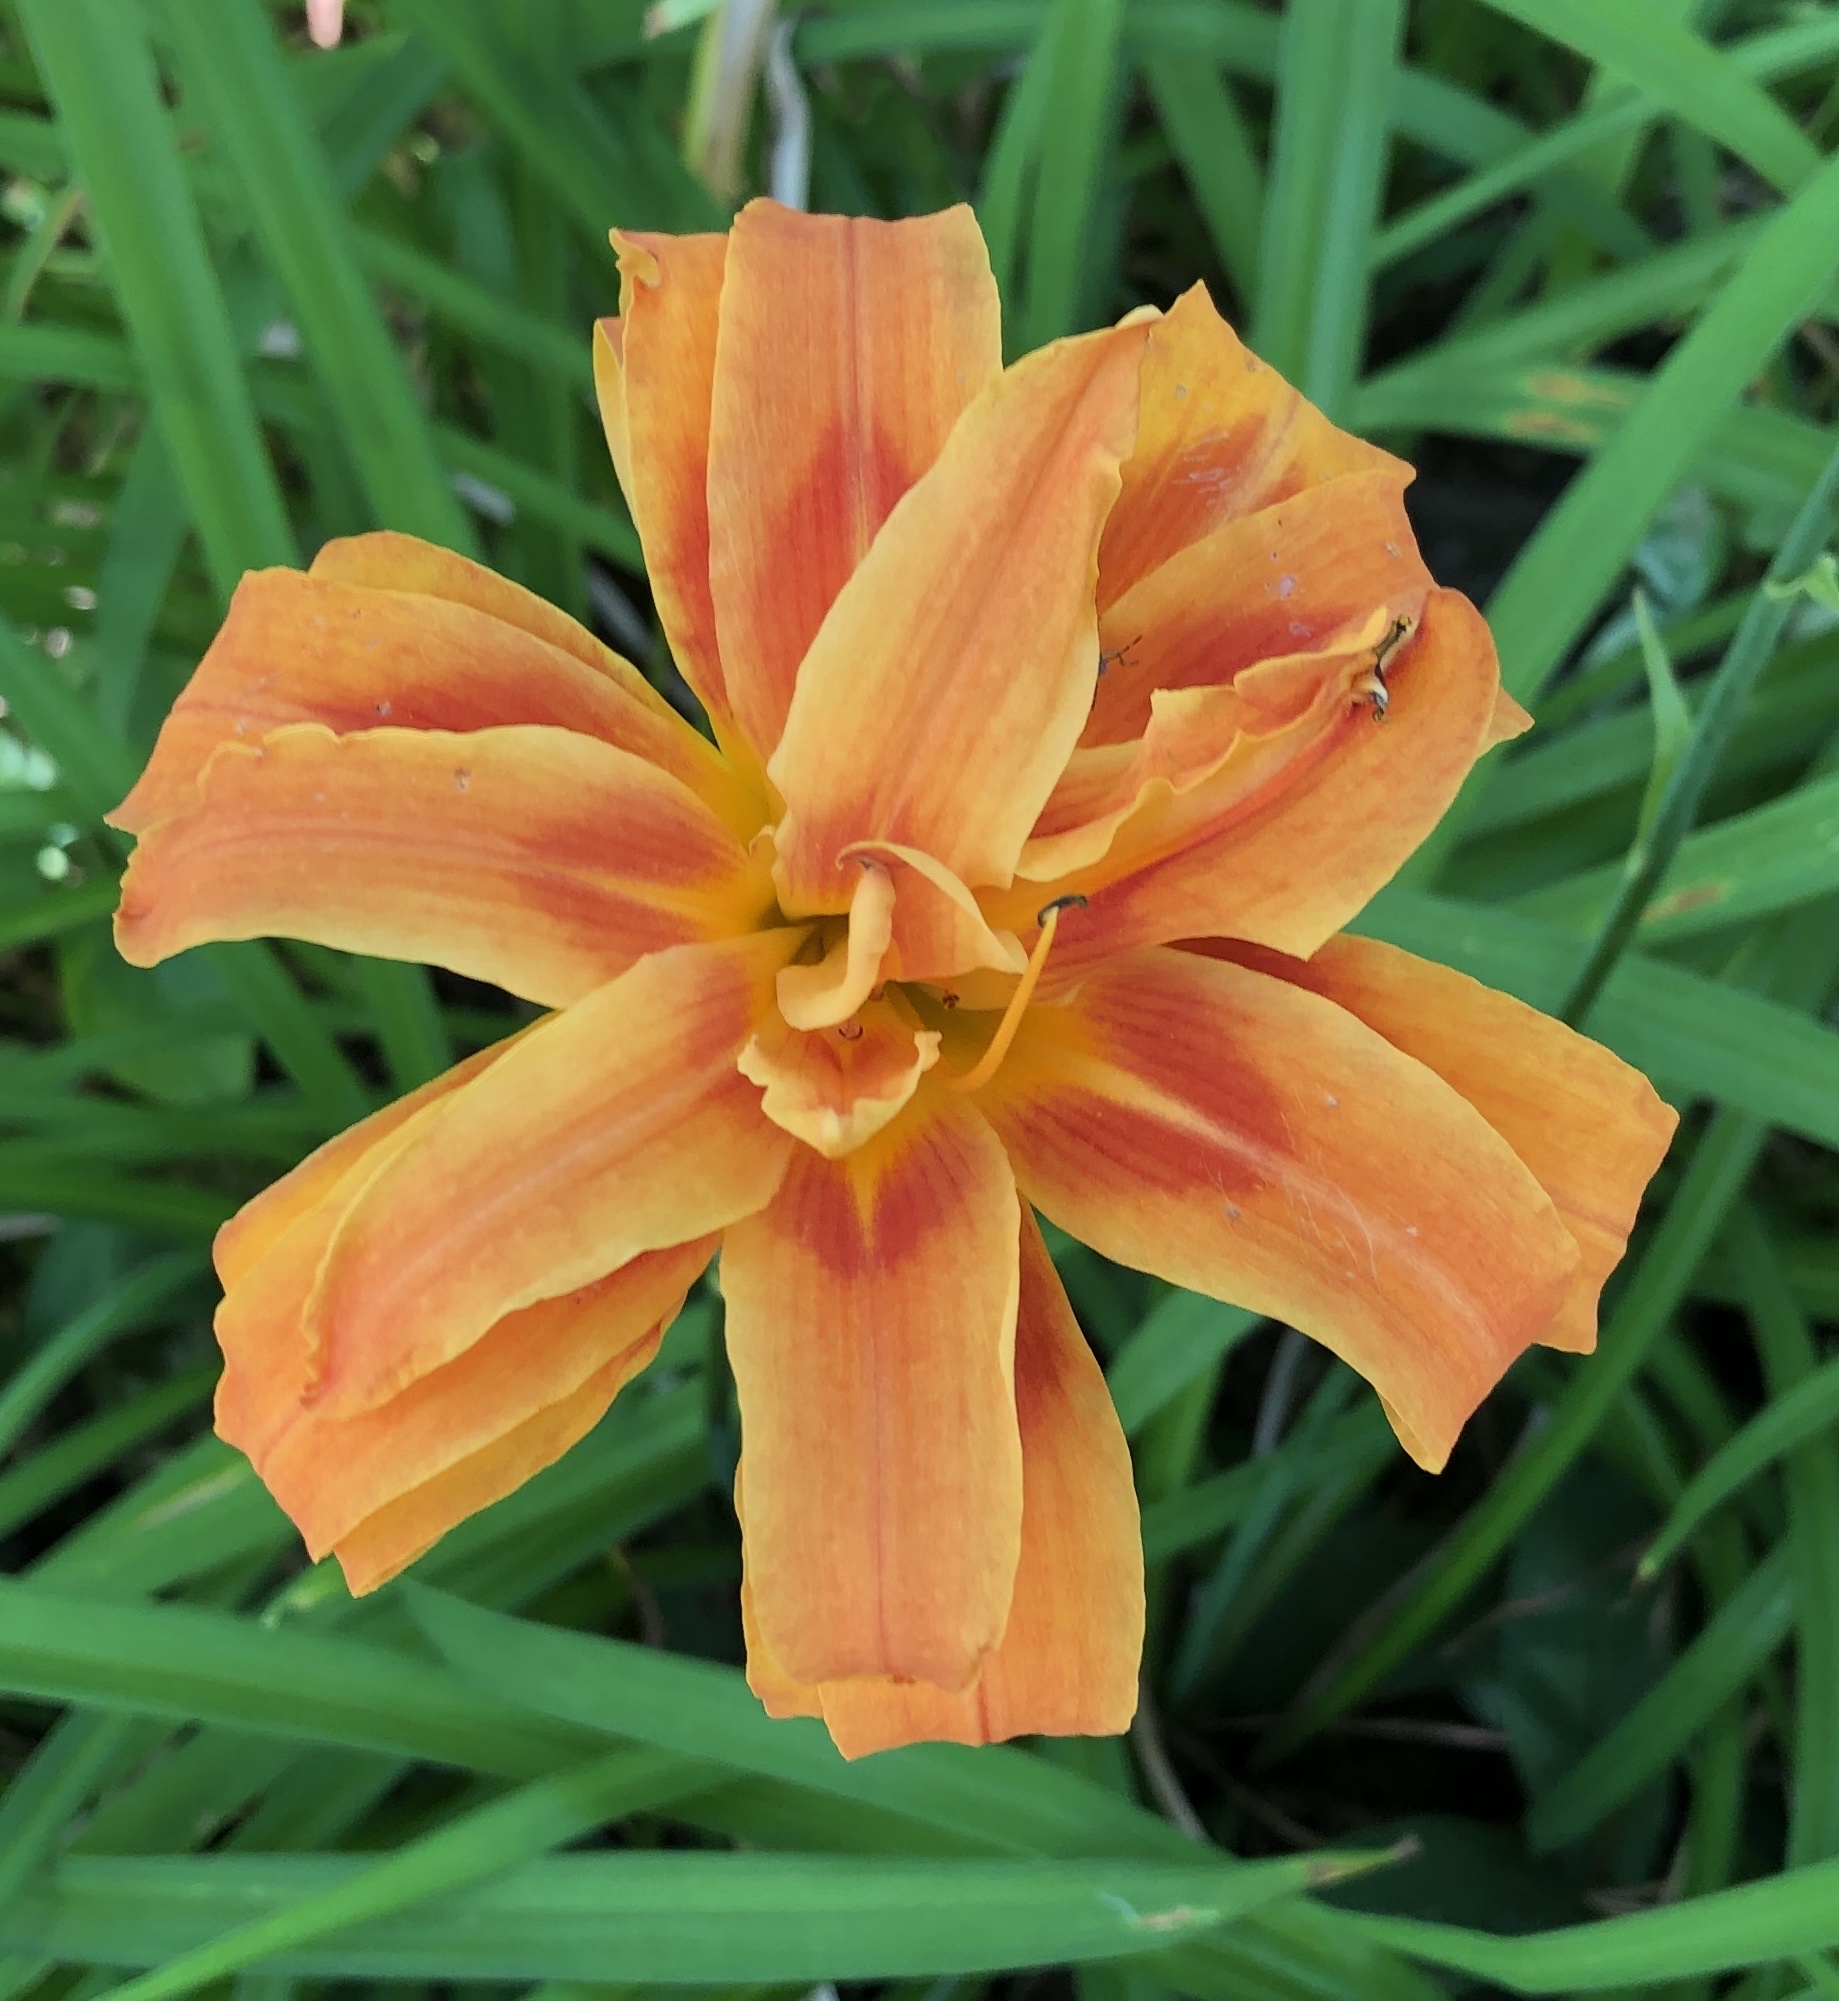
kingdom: Plantae
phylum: Tracheophyta
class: Liliopsida
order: Asparagales
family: Asphodelaceae
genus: Hemerocallis
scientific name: Hemerocallis fulva
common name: Orange day-lily
